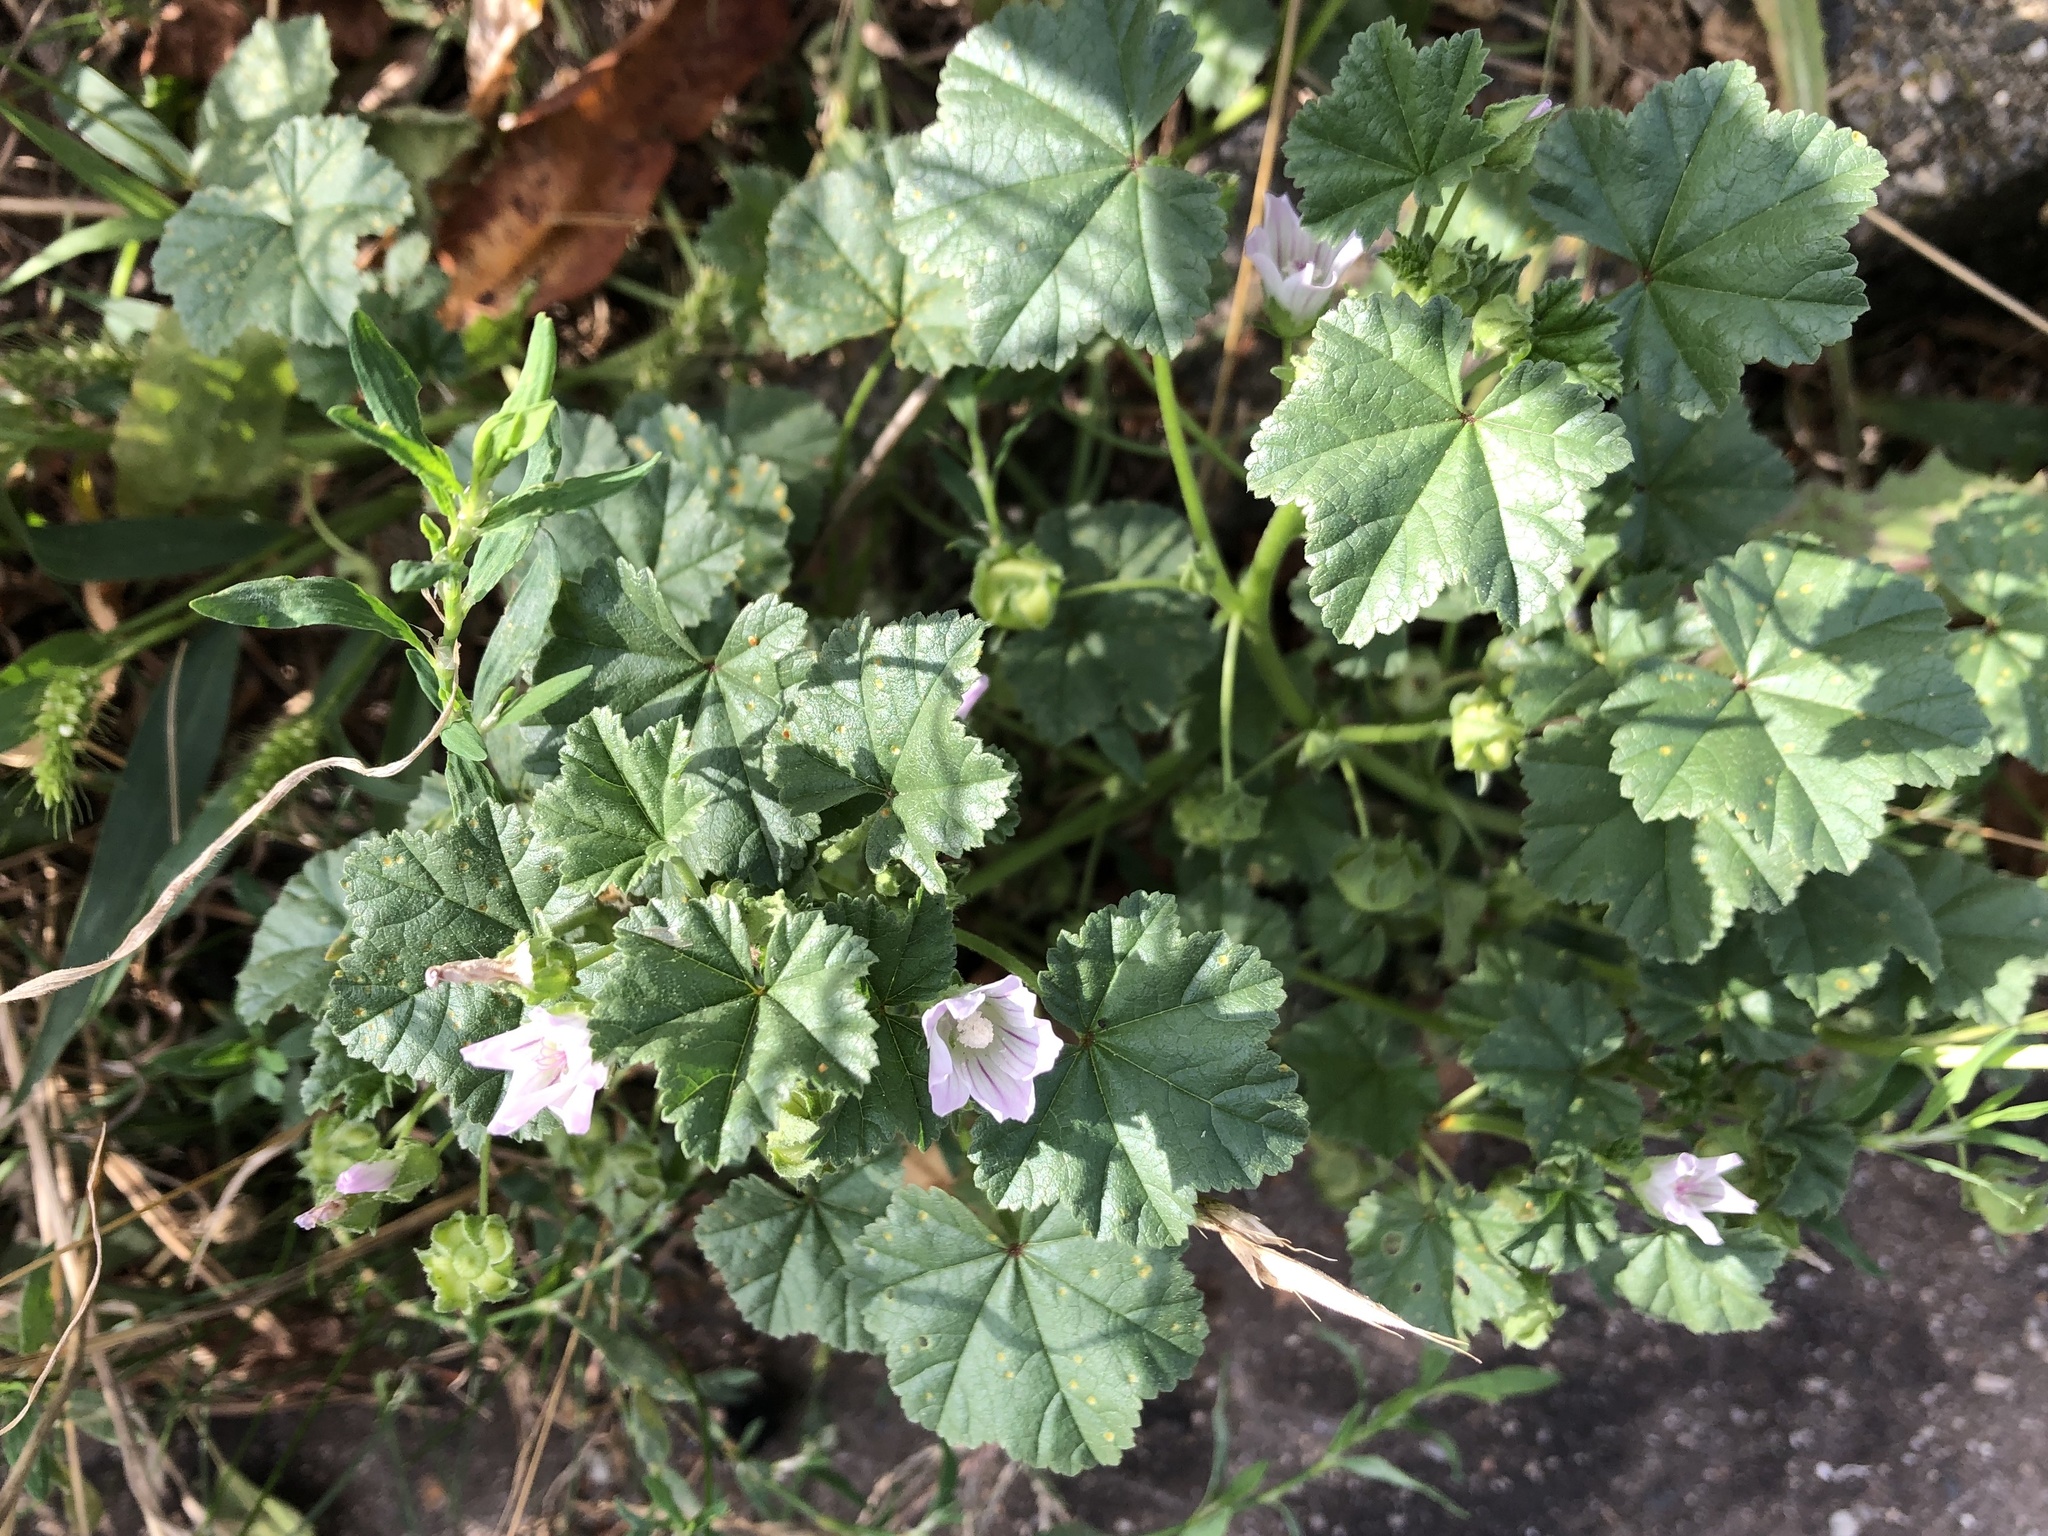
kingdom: Plantae
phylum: Tracheophyta
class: Magnoliopsida
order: Malvales
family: Malvaceae
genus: Malva
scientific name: Malva neglecta
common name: Common mallow
